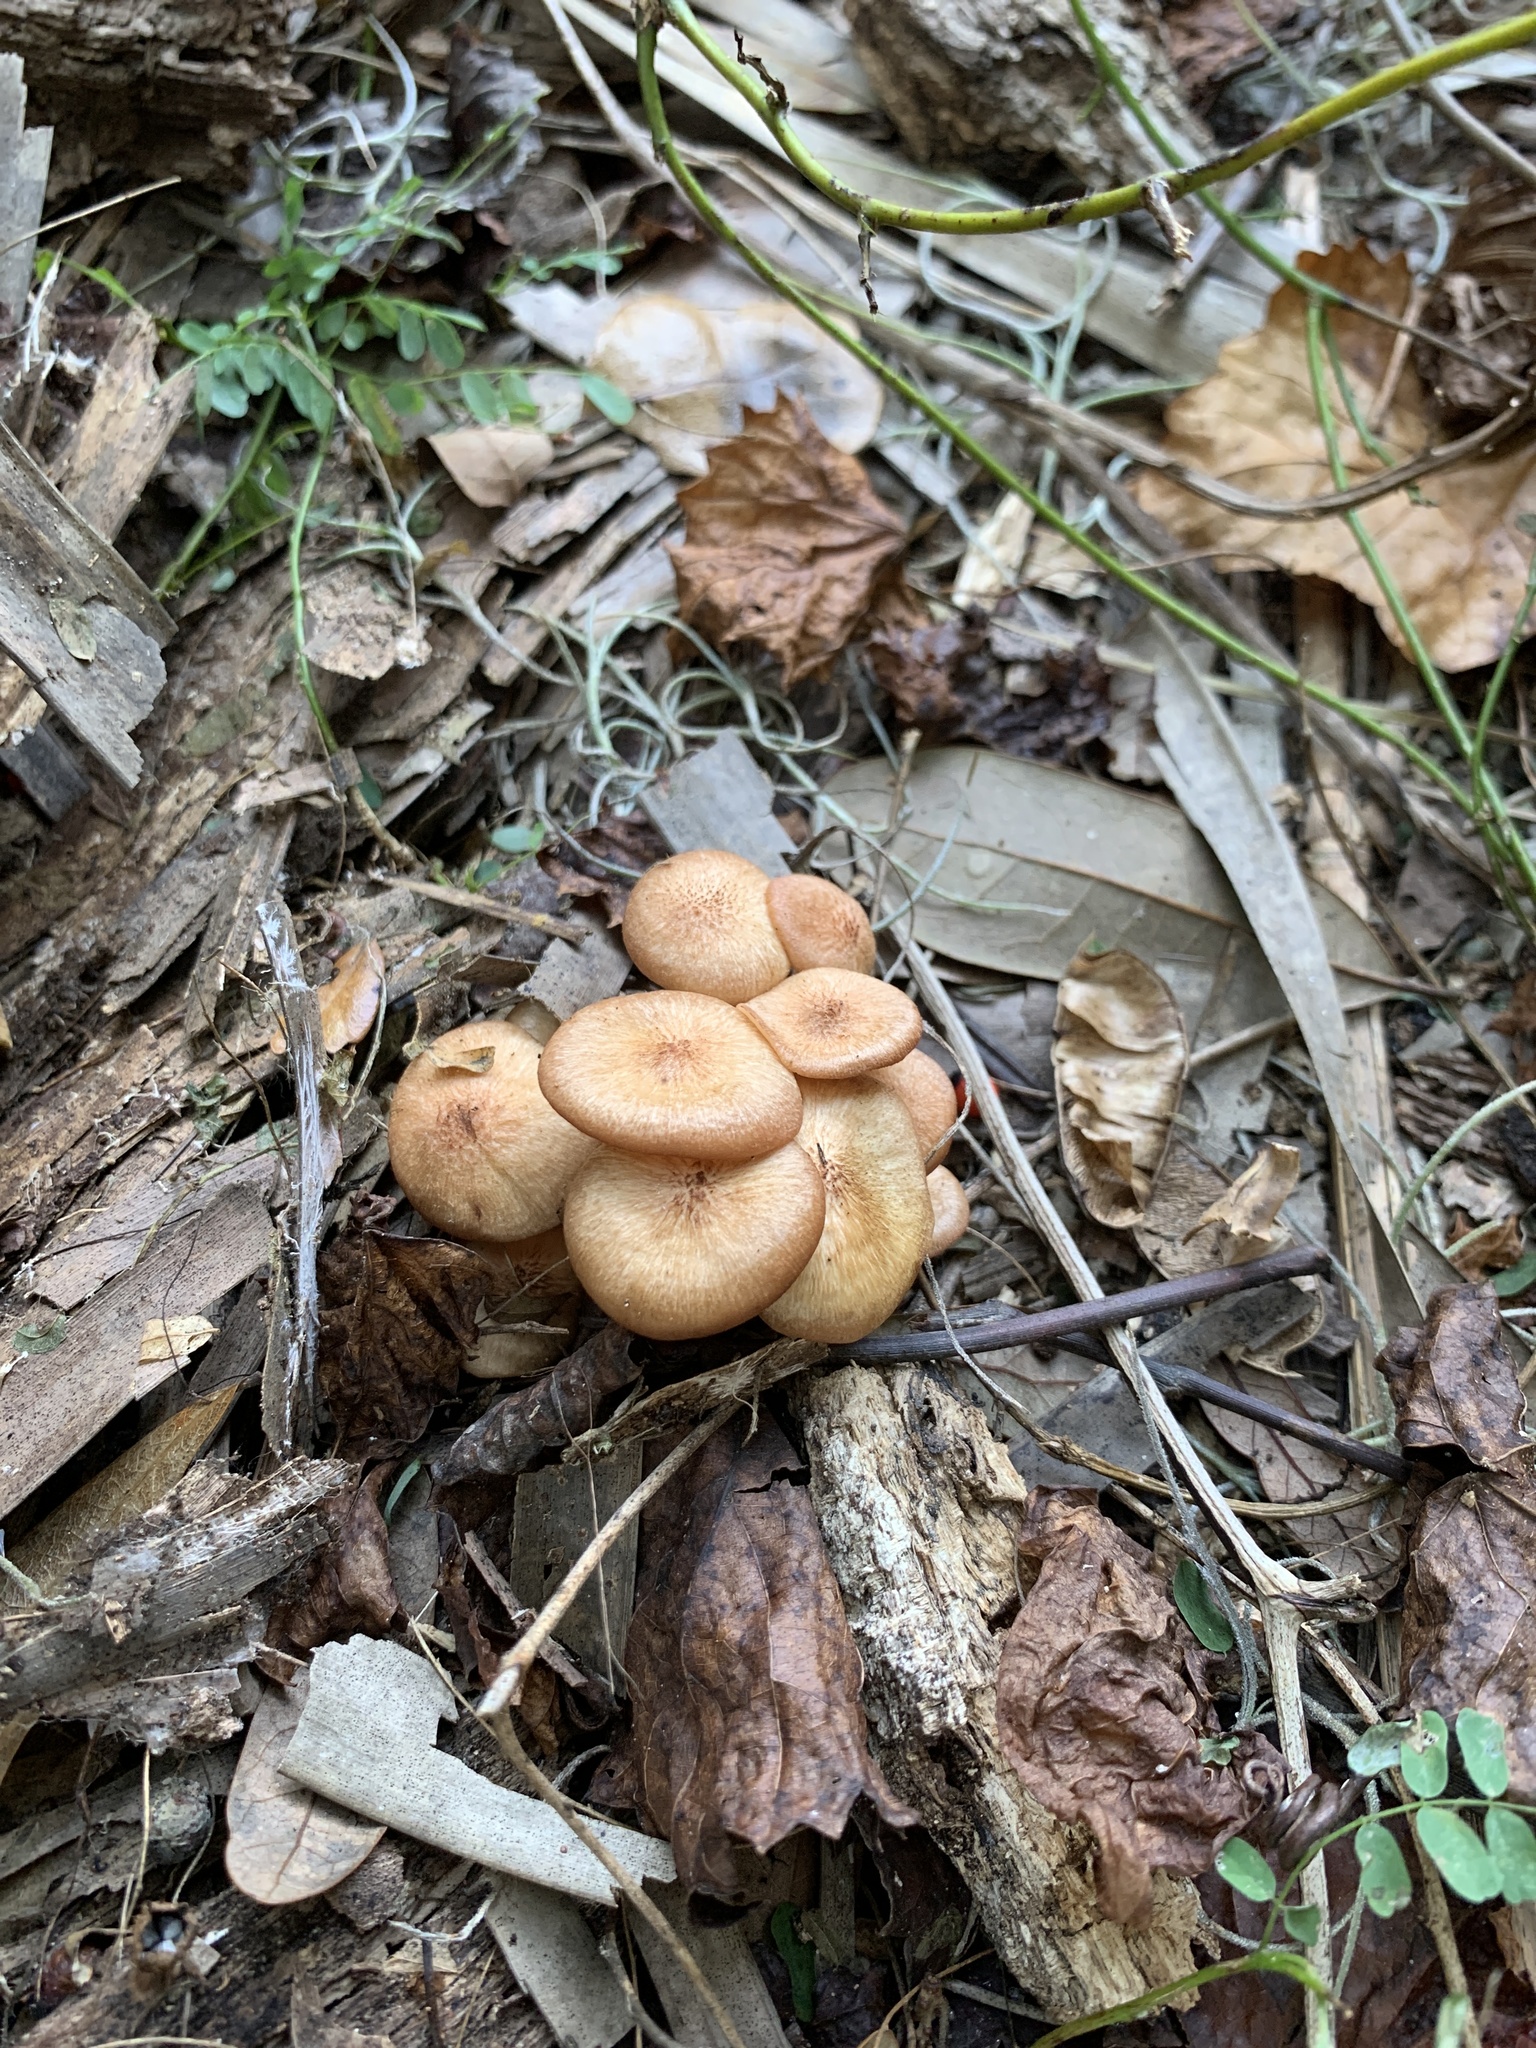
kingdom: Fungi
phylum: Basidiomycota
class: Agaricomycetes
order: Agaricales
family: Physalacriaceae
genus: Desarmillaria
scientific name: Desarmillaria caespitosa
